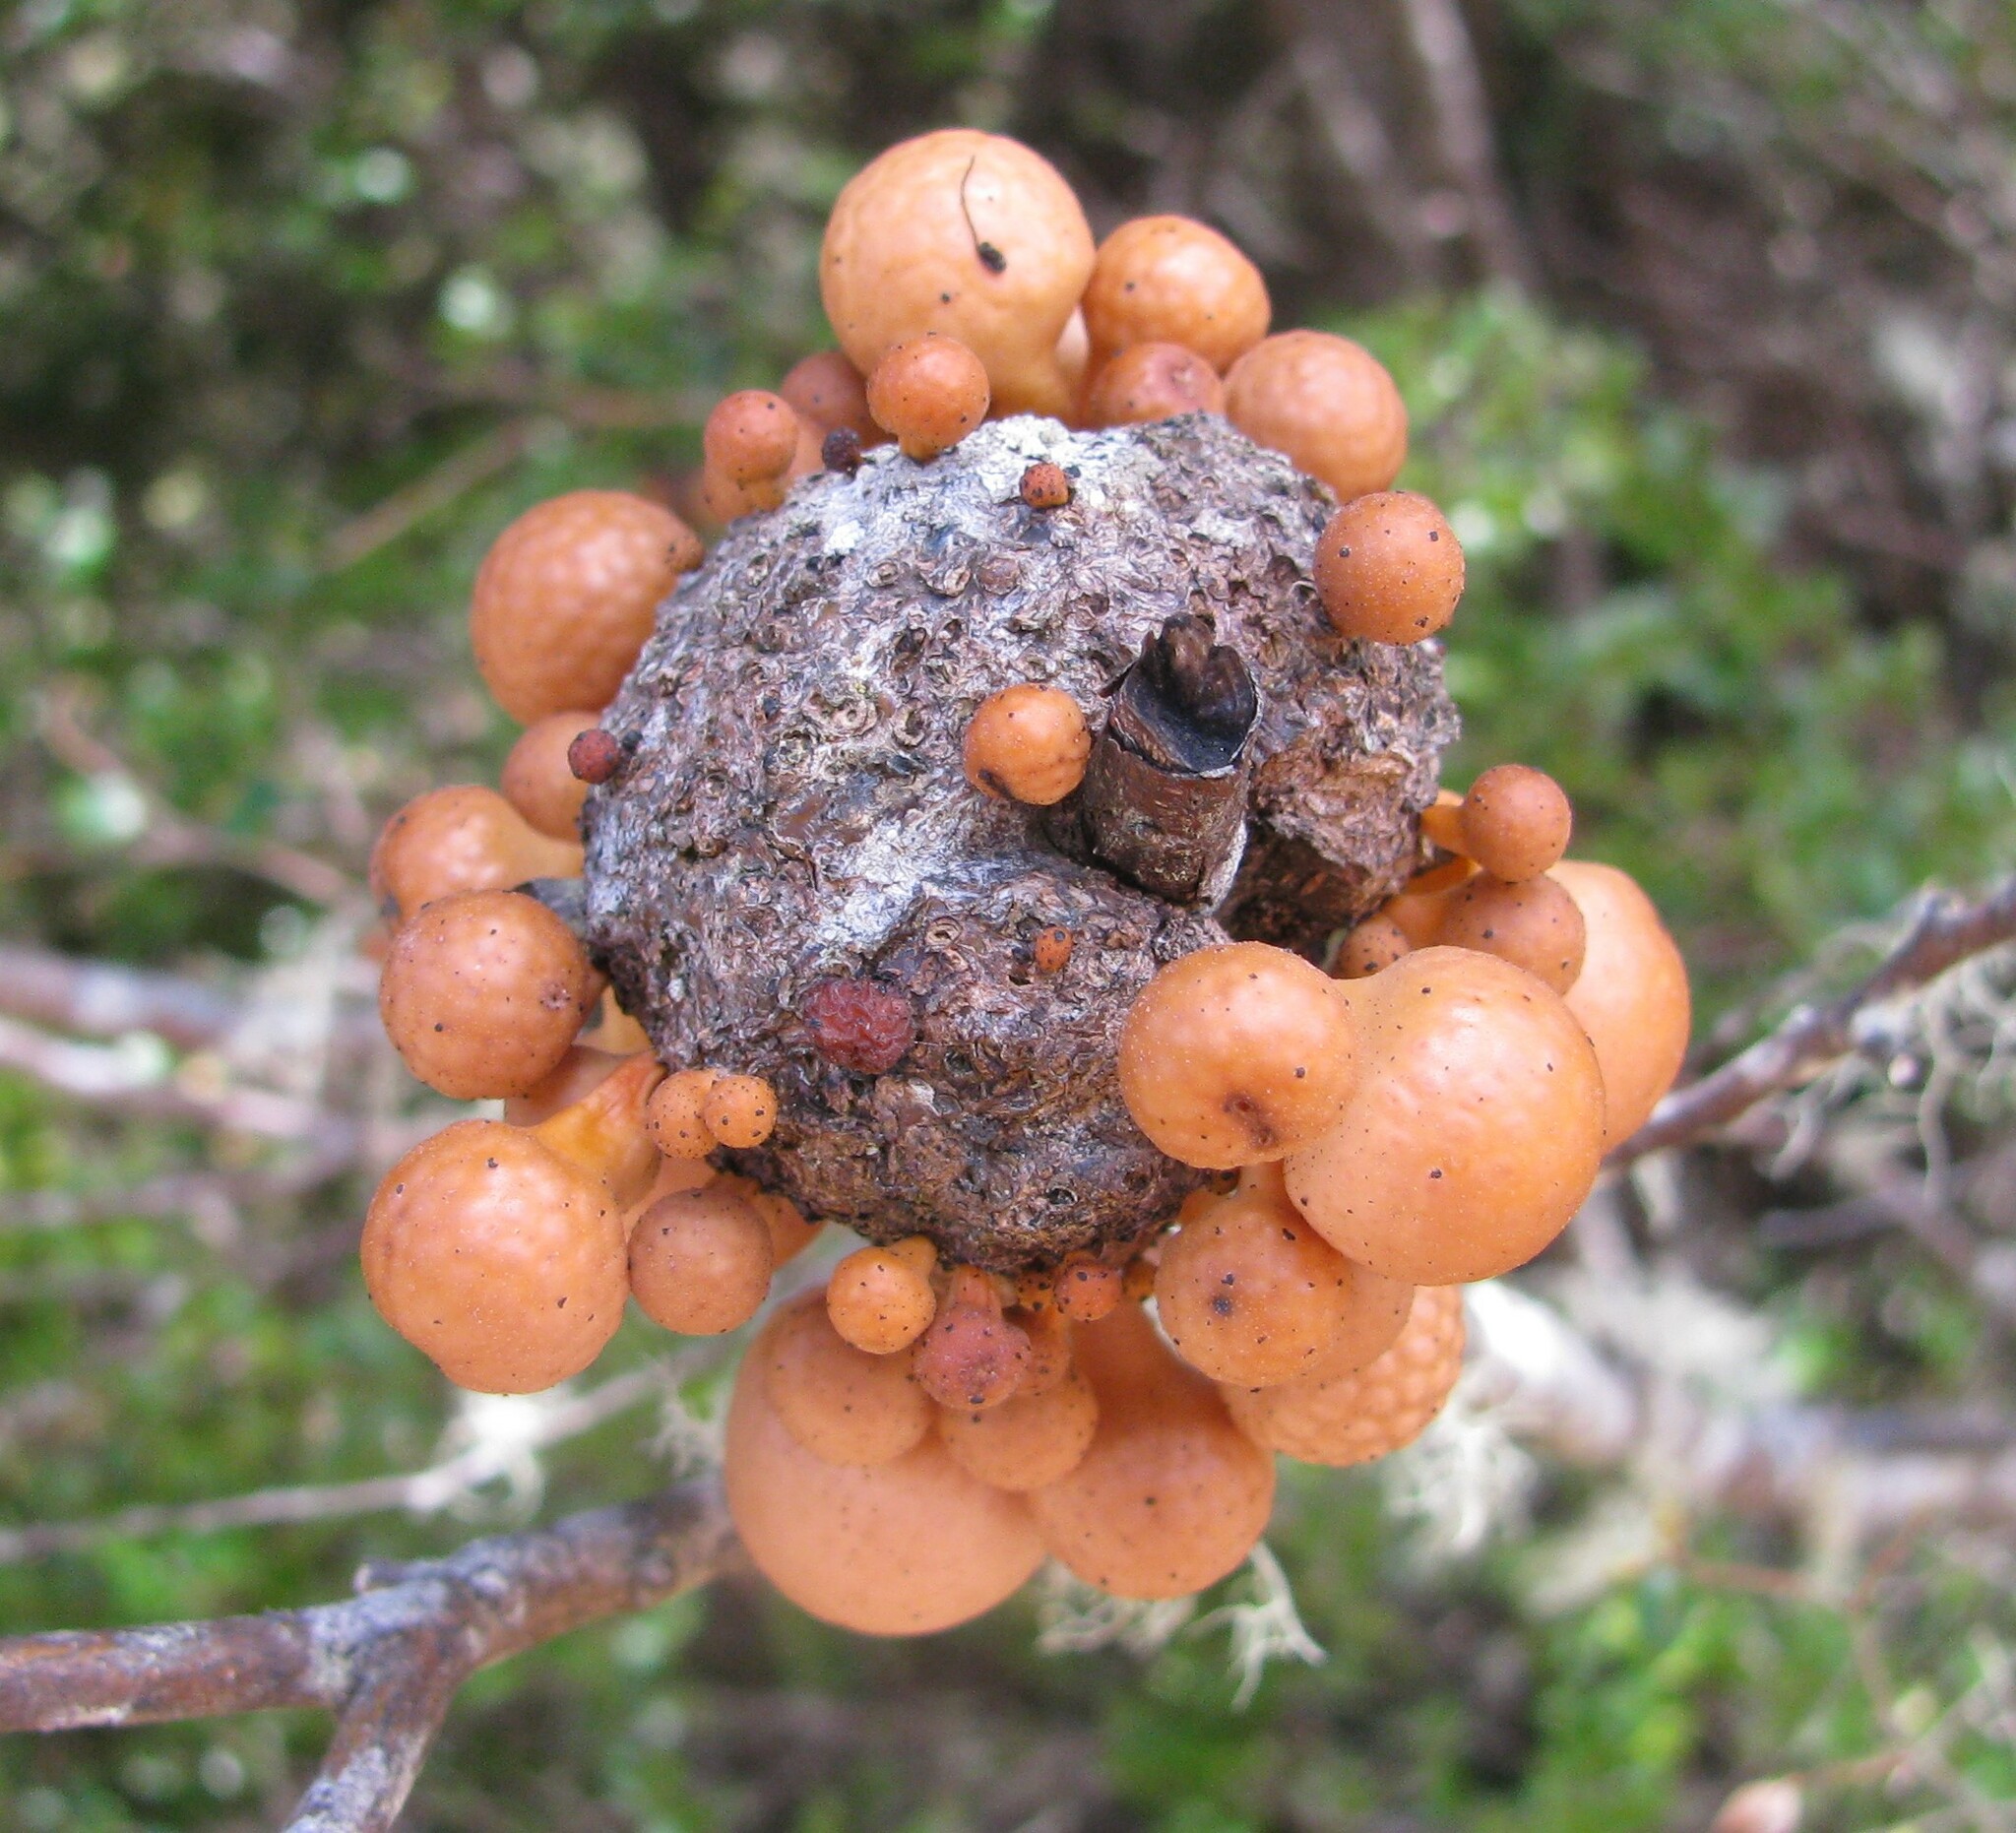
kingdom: Fungi
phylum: Ascomycota
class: Leotiomycetes
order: Cyttariales
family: Cyttariaceae
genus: Cyttaria
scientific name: Cyttaria gunnii
